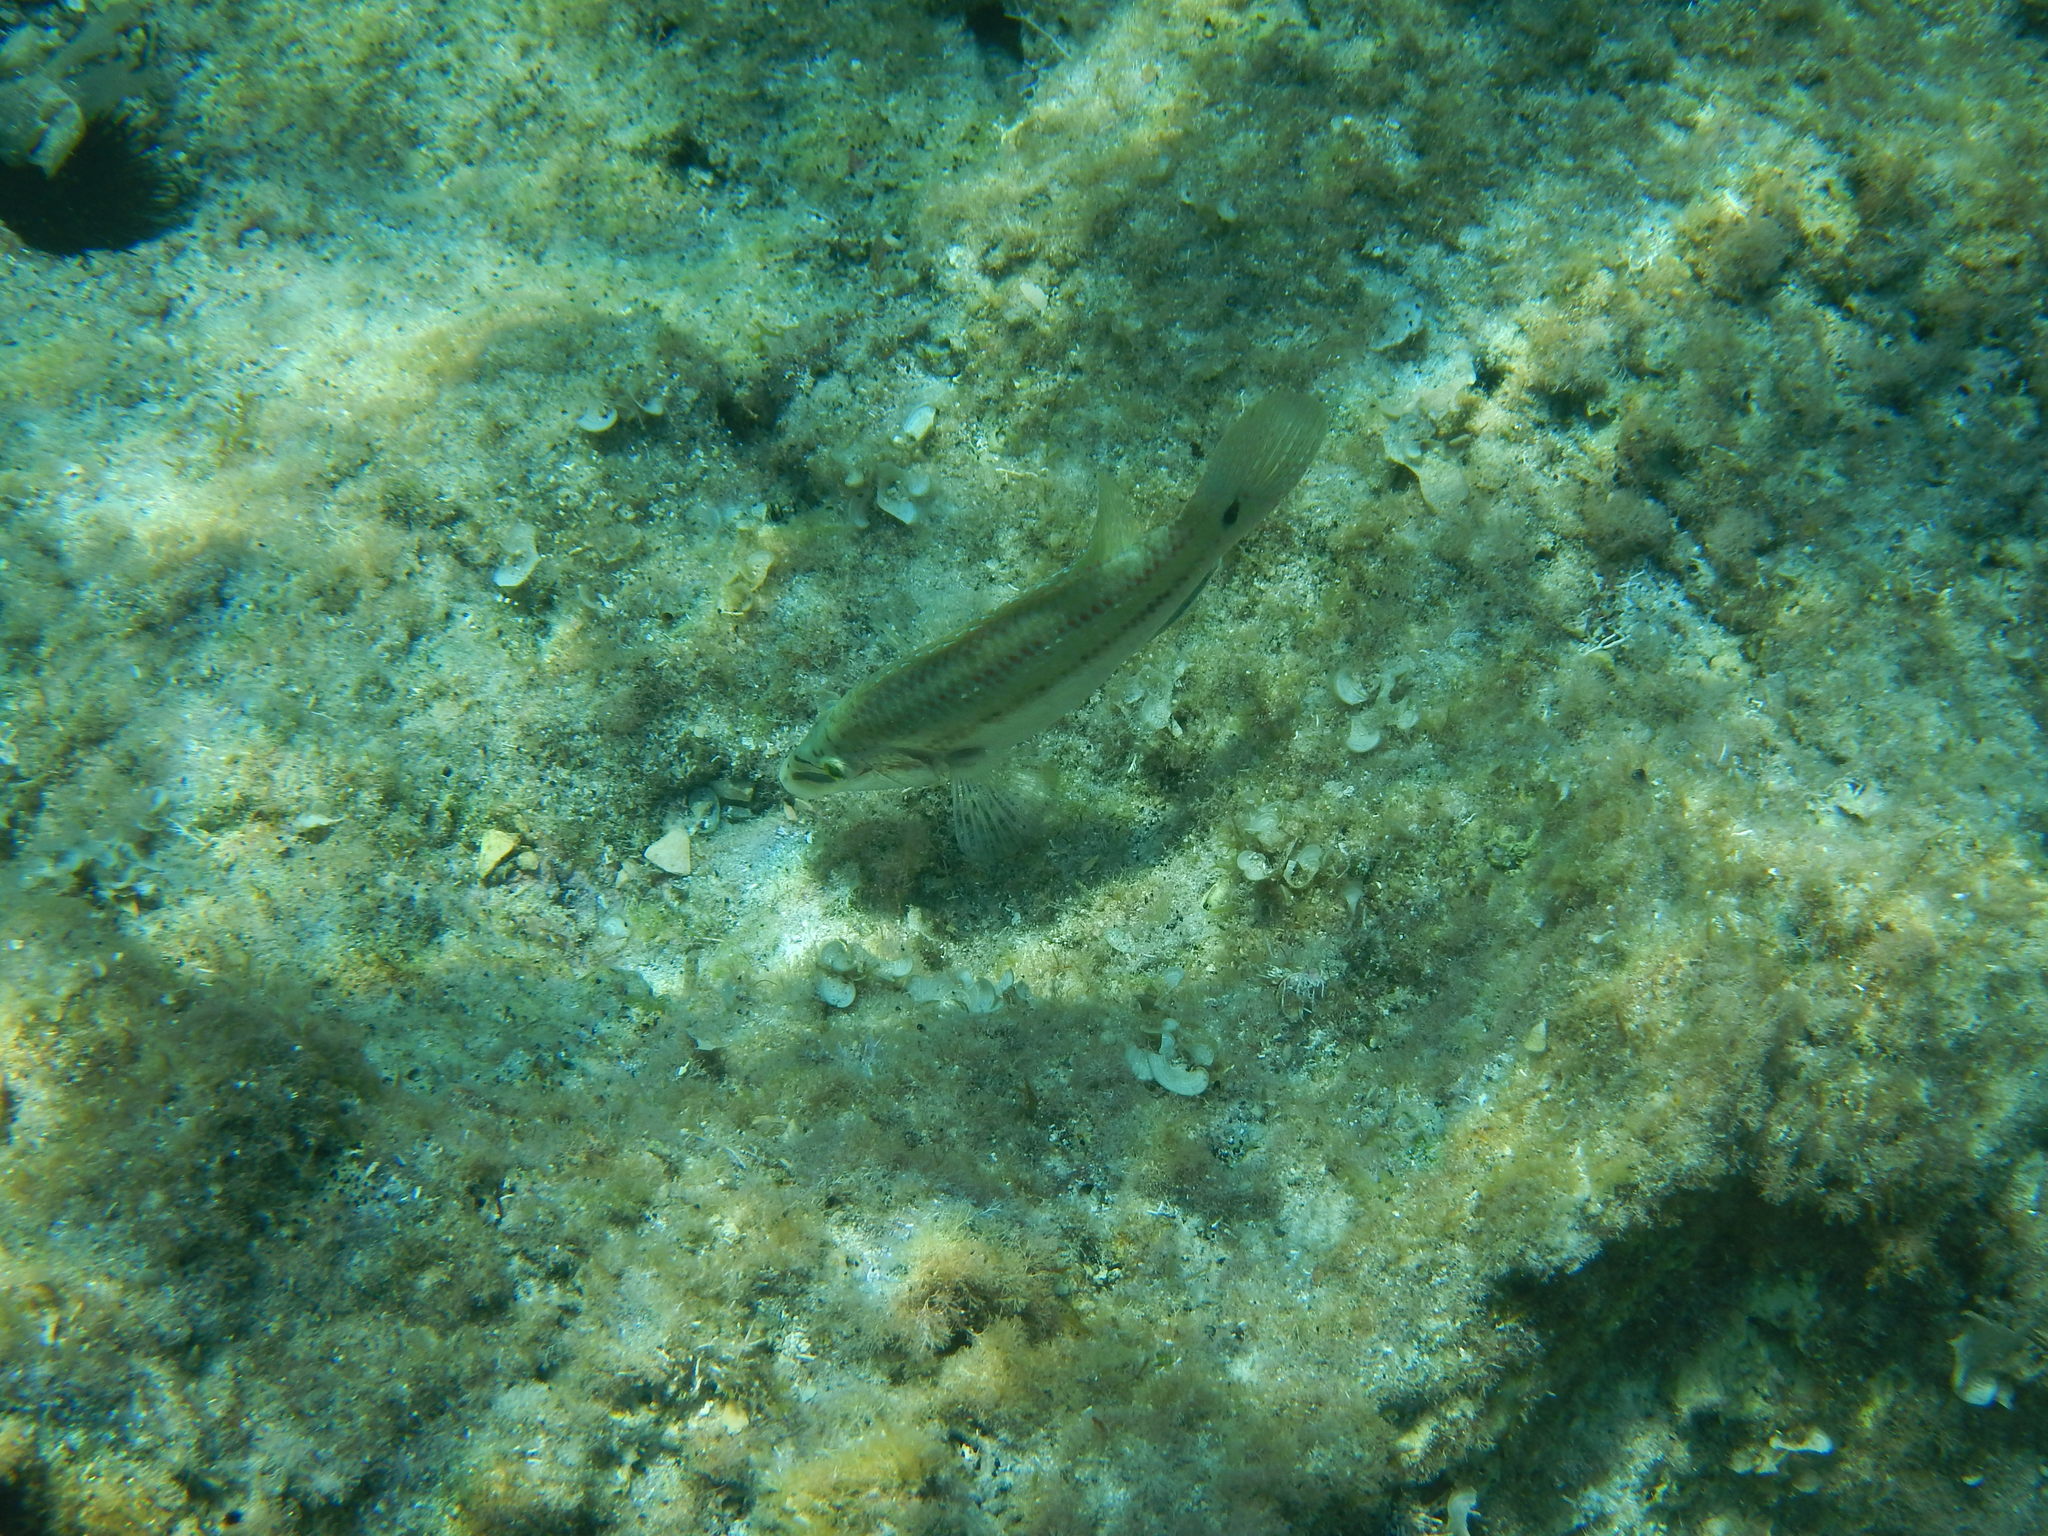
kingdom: Animalia
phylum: Chordata
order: Perciformes
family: Labridae
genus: Symphodus
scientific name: Symphodus tinca
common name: Peacock wrasse
